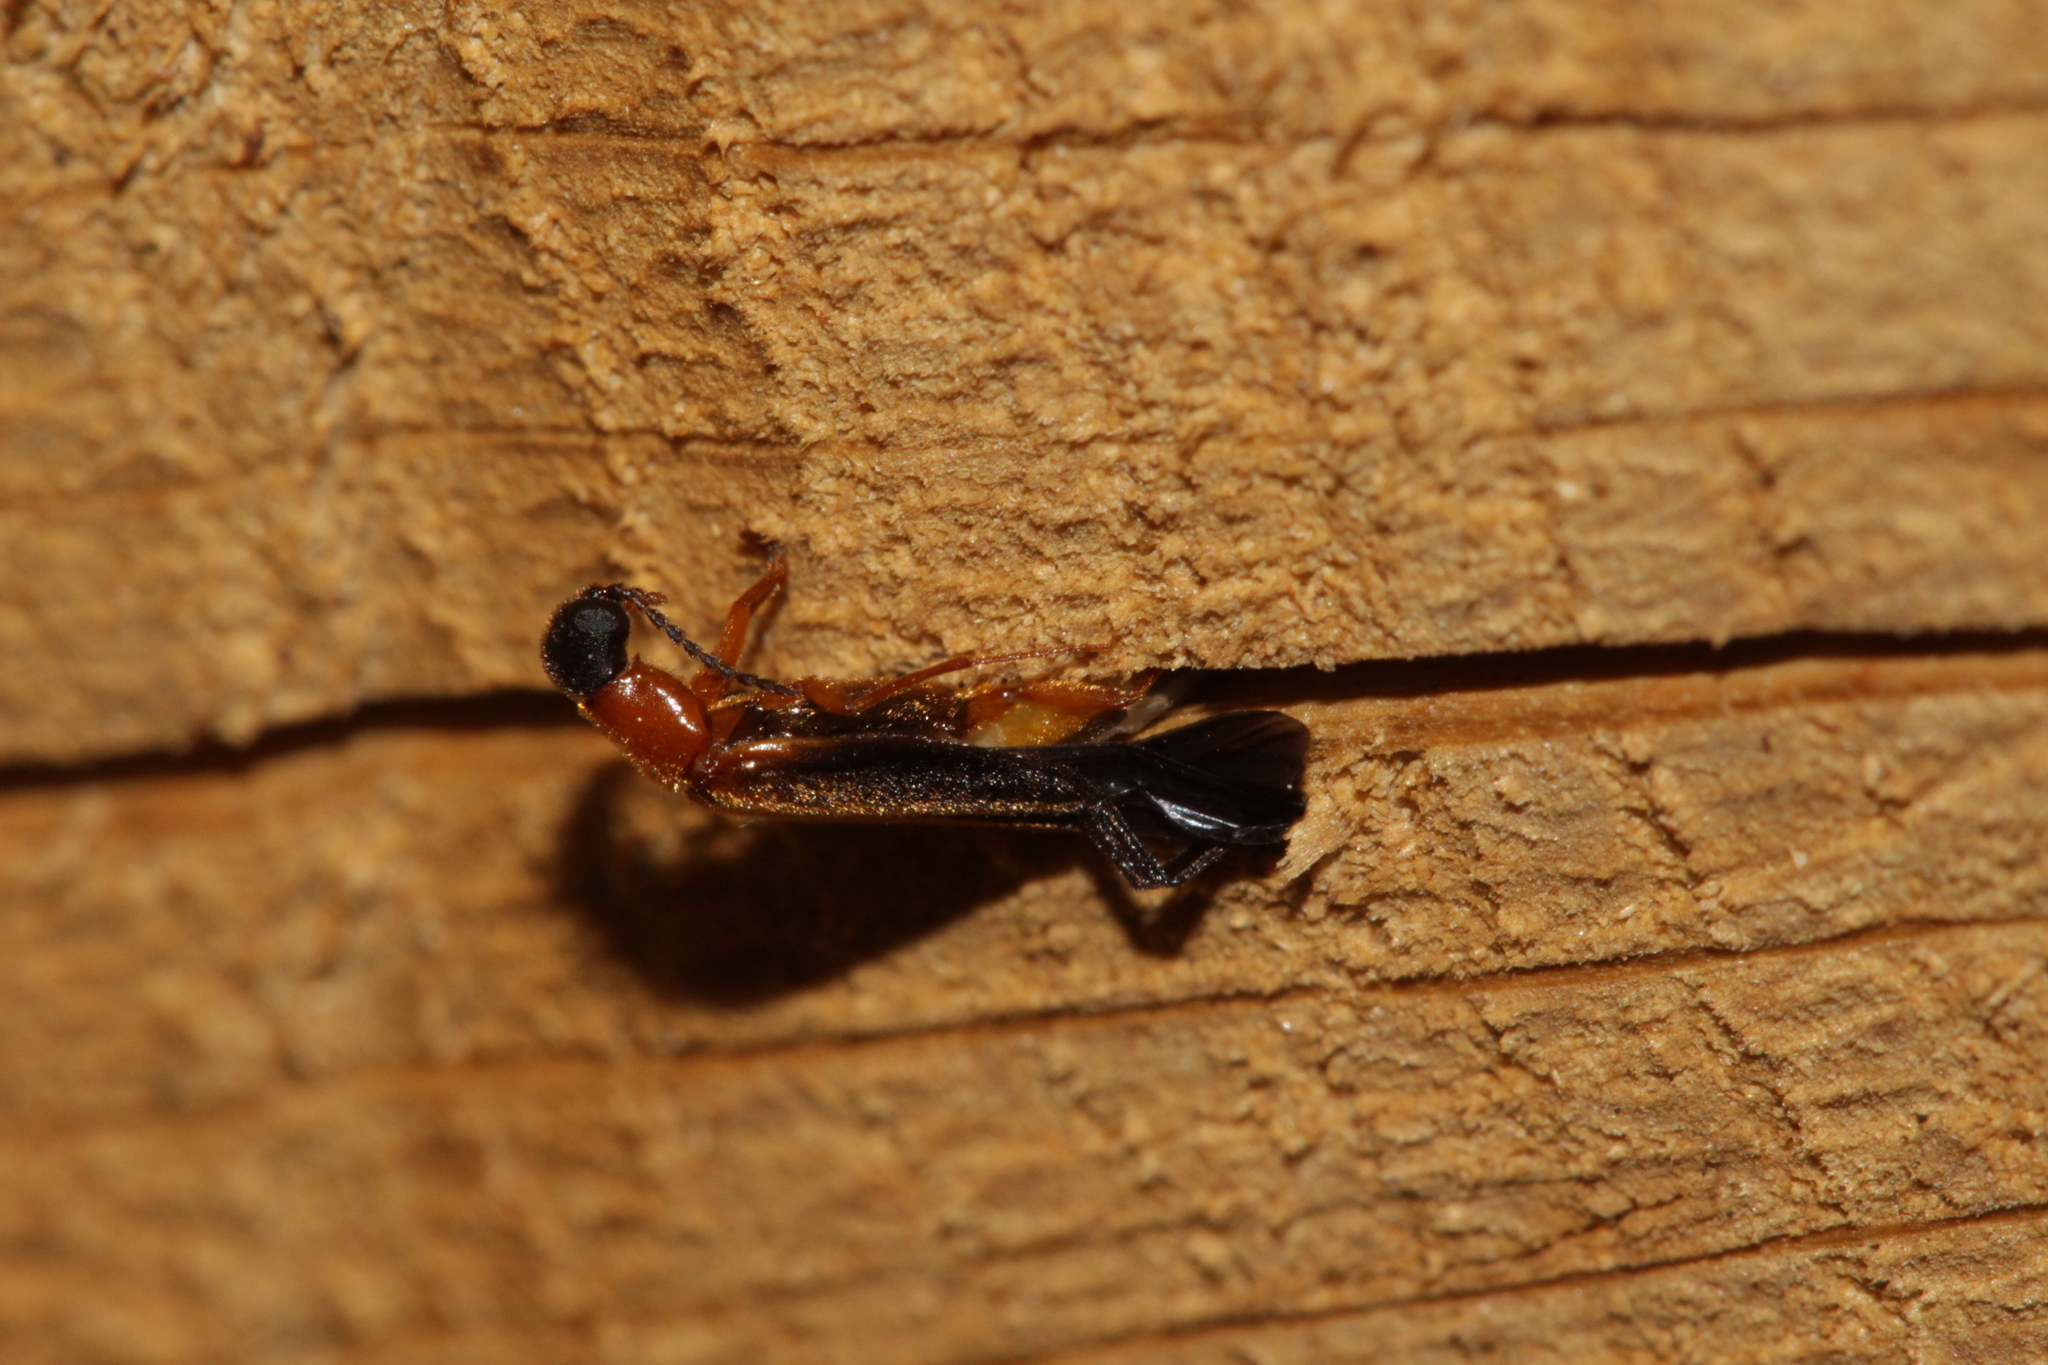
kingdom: Animalia
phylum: Arthropoda
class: Insecta
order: Coleoptera
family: Lymexylidae
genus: Lymexylon
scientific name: Lymexylon navale
